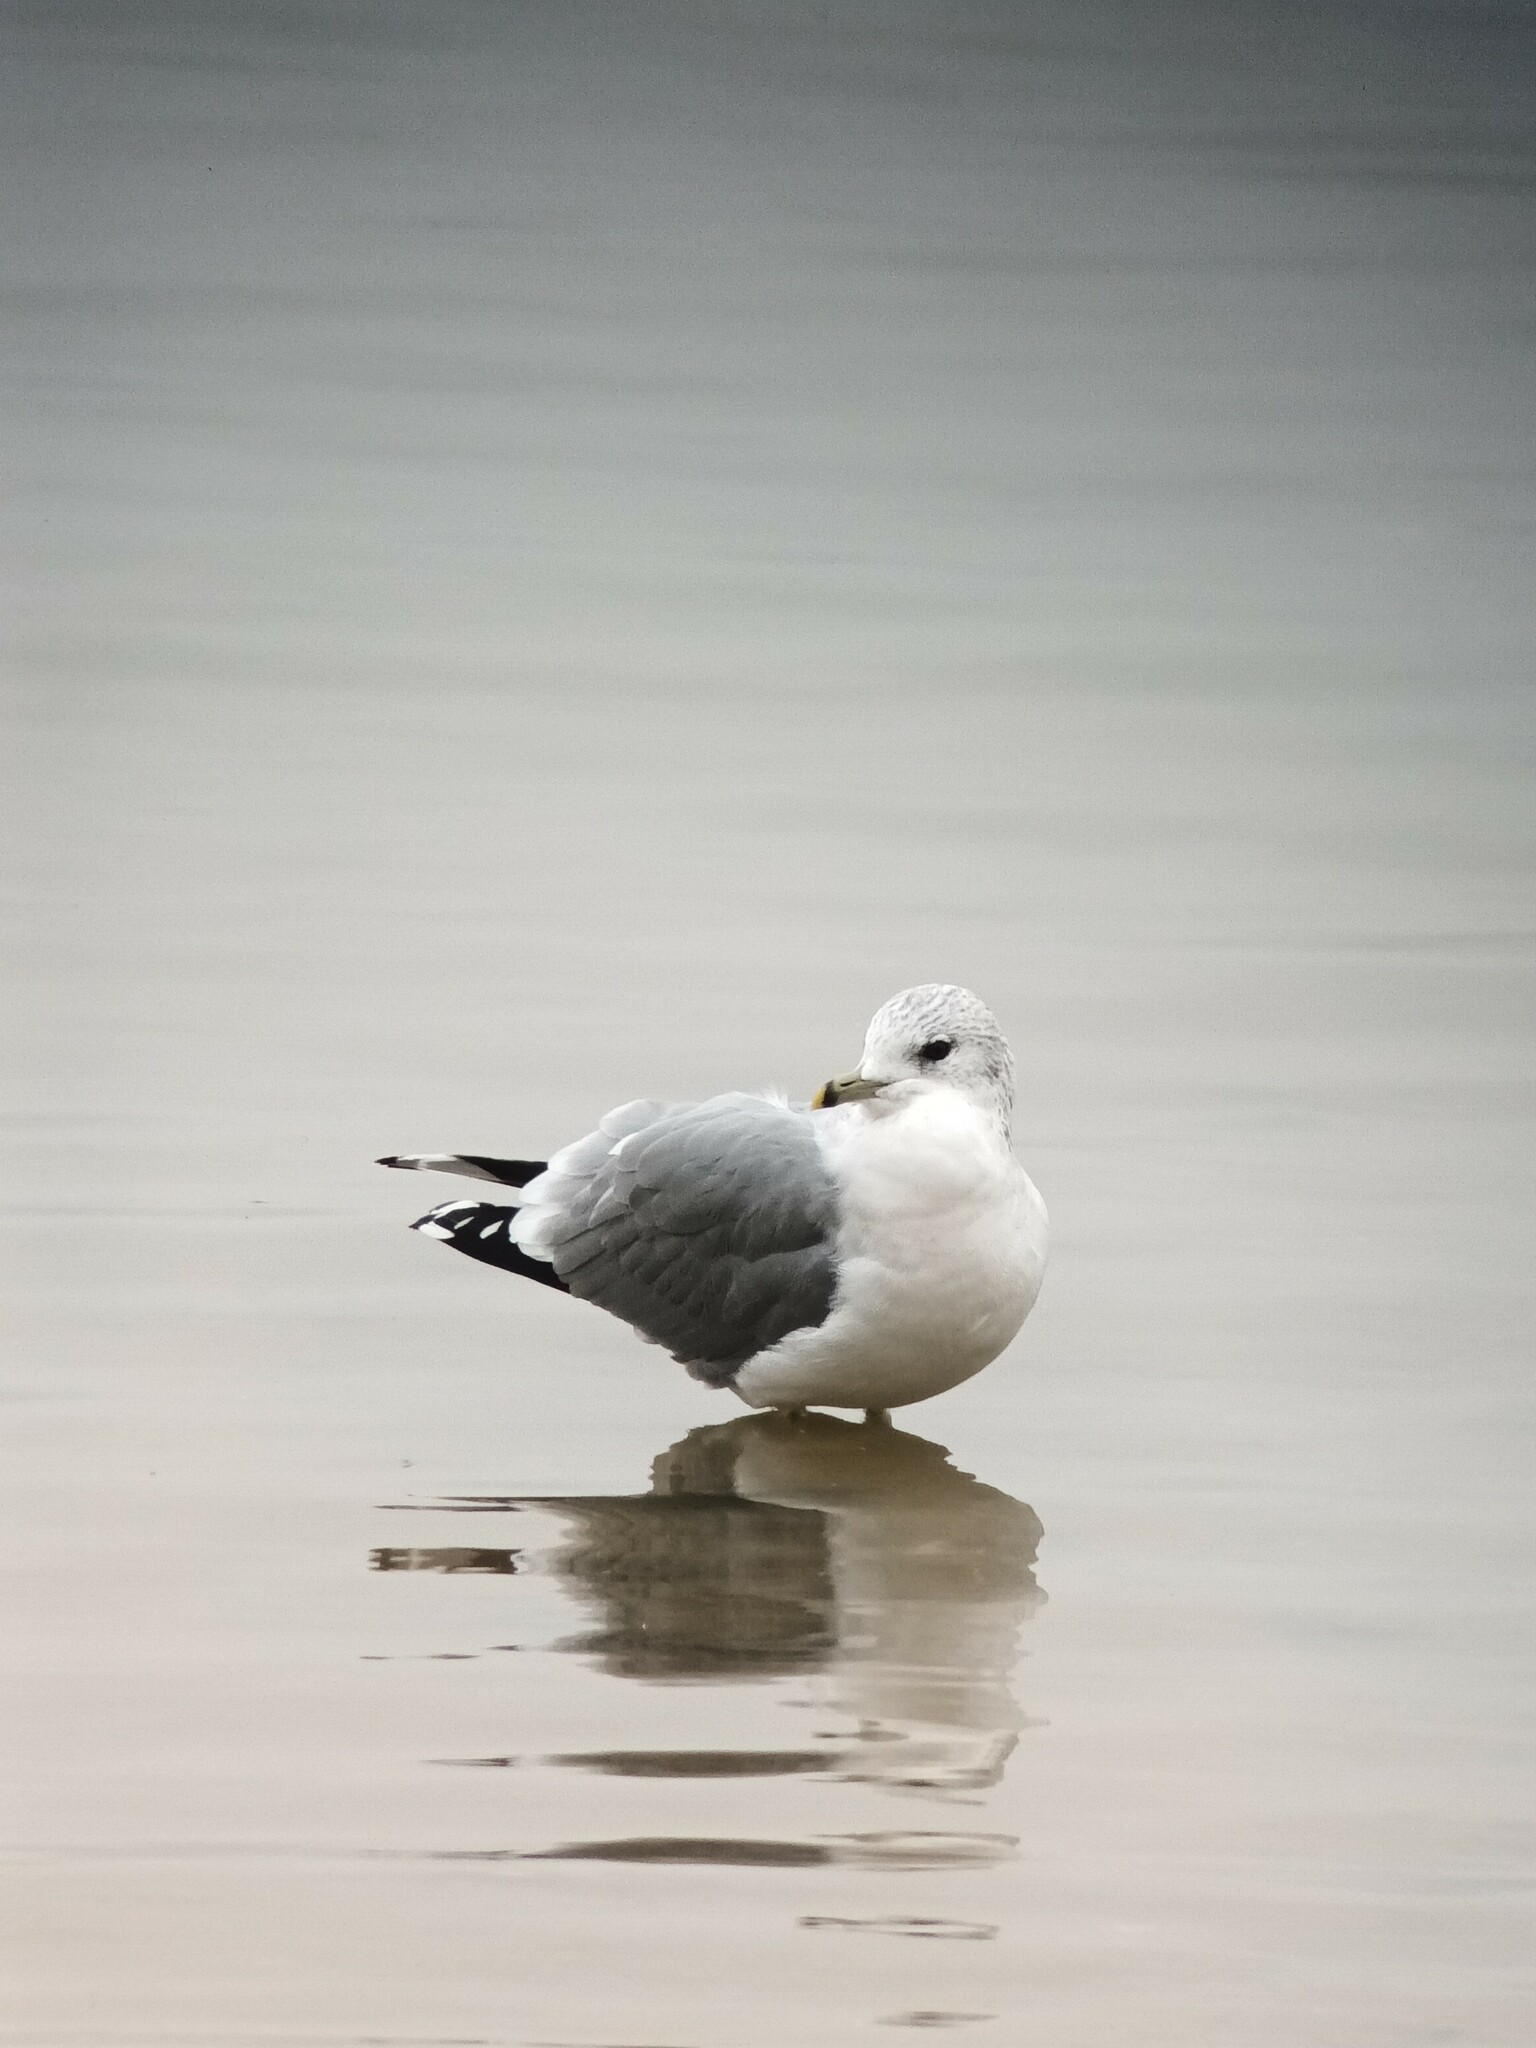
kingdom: Animalia
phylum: Chordata
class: Aves
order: Charadriiformes
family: Laridae
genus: Larus
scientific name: Larus canus
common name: Mew gull
